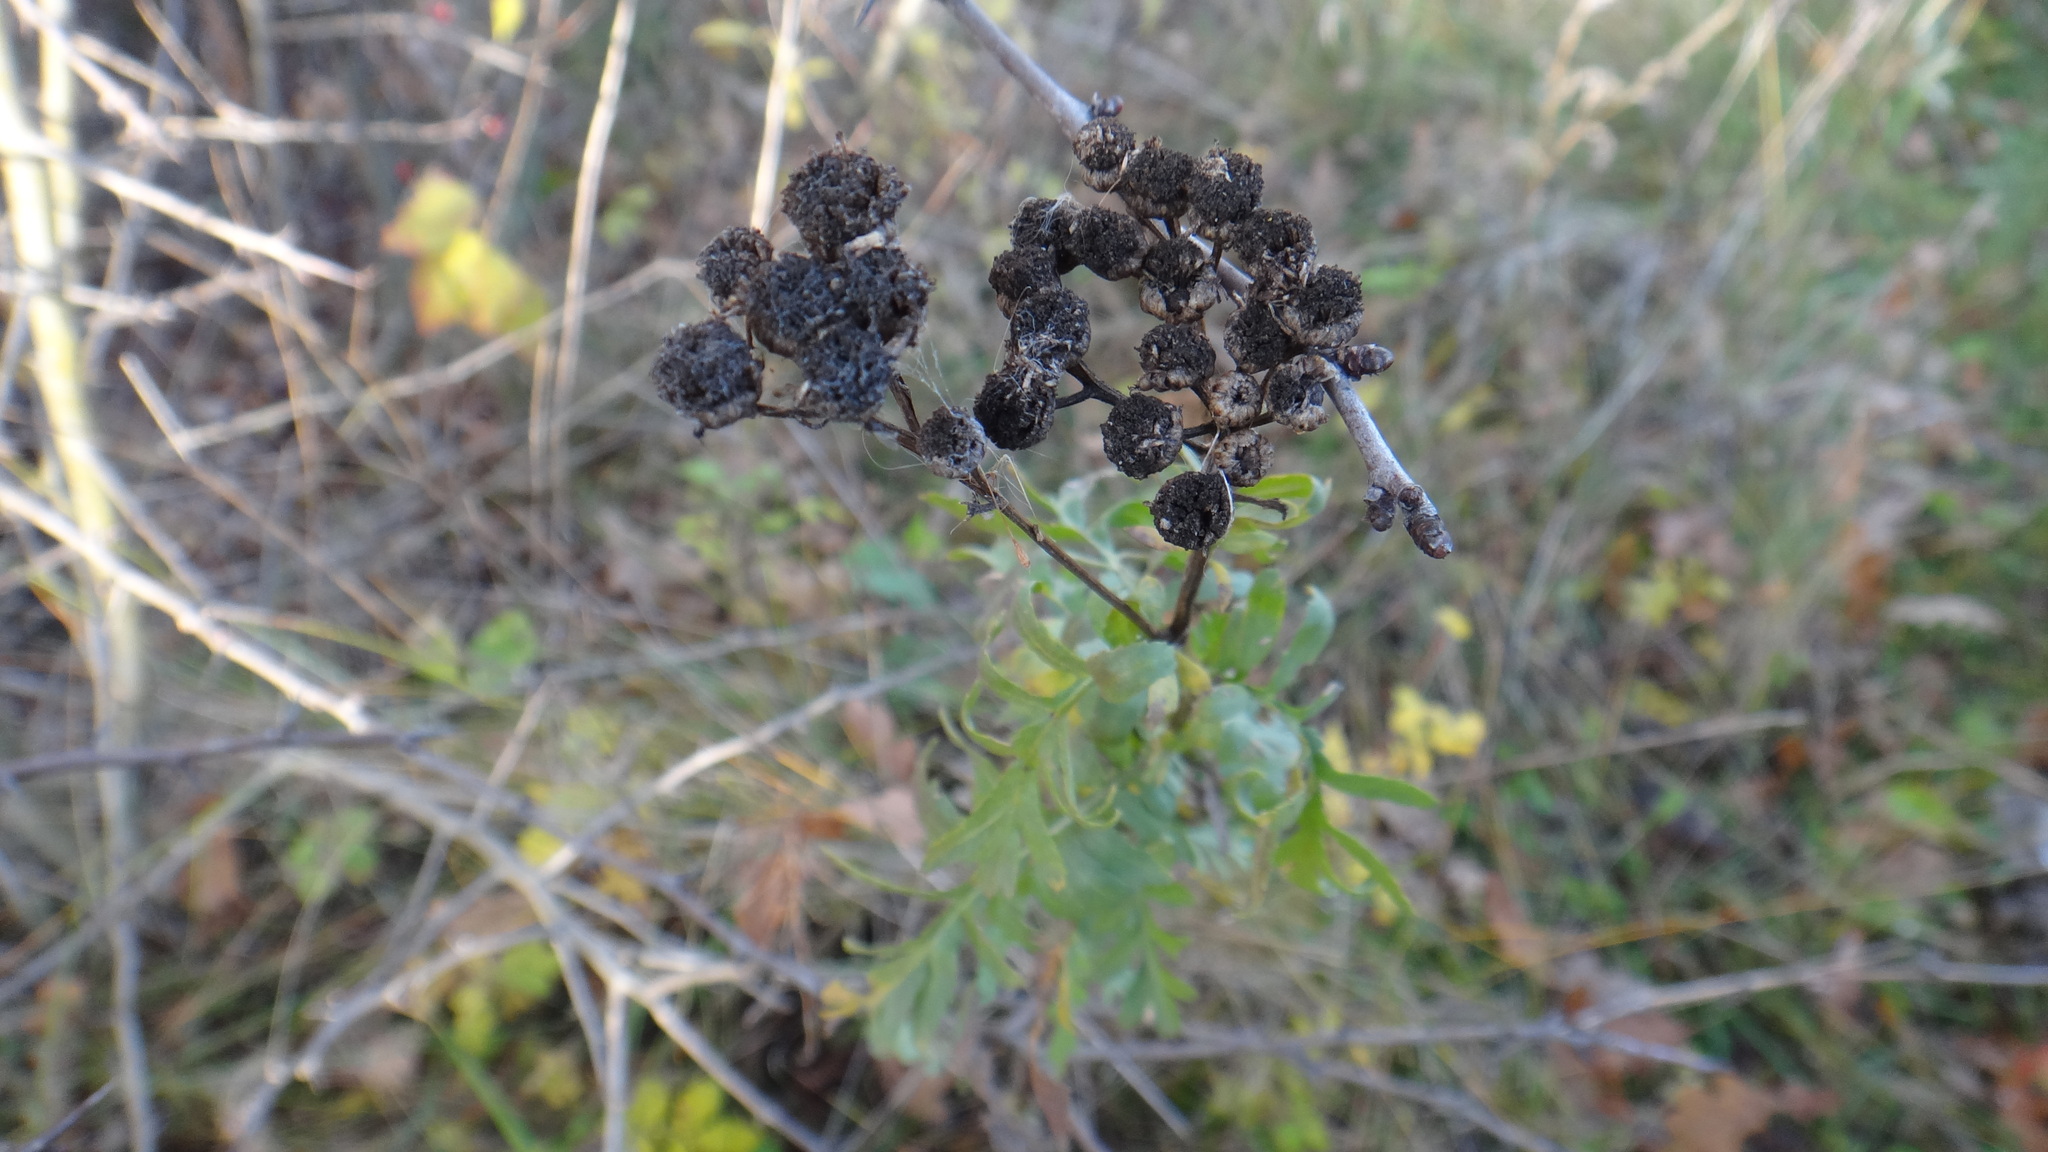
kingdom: Plantae
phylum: Tracheophyta
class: Magnoliopsida
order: Asterales
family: Asteraceae
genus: Tanacetum
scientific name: Tanacetum vulgare
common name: Common tansy
